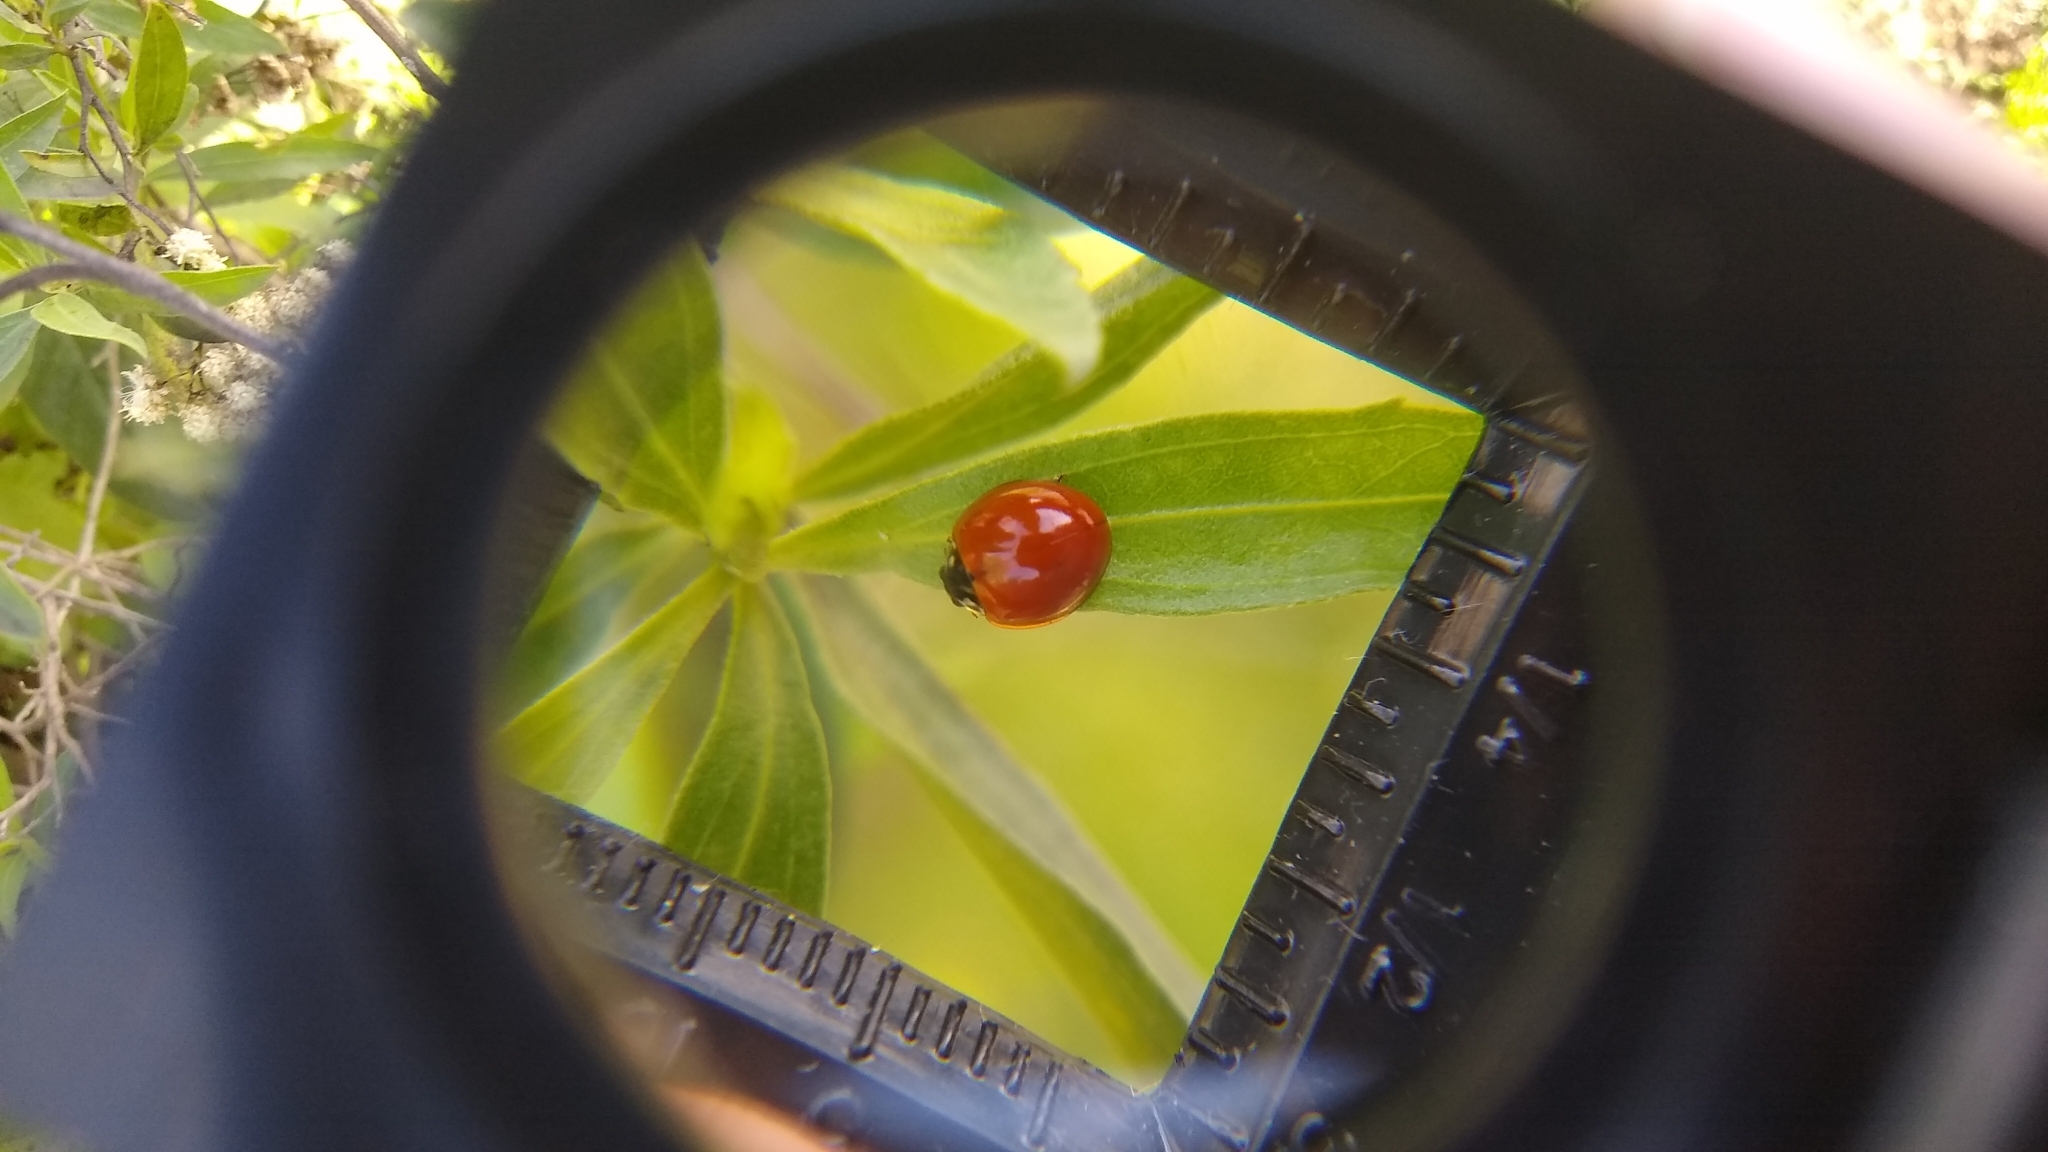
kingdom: Animalia
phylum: Arthropoda
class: Insecta
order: Coleoptera
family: Coccinellidae
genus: Cycloneda
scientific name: Cycloneda sanguinea
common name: Ladybird beetle
